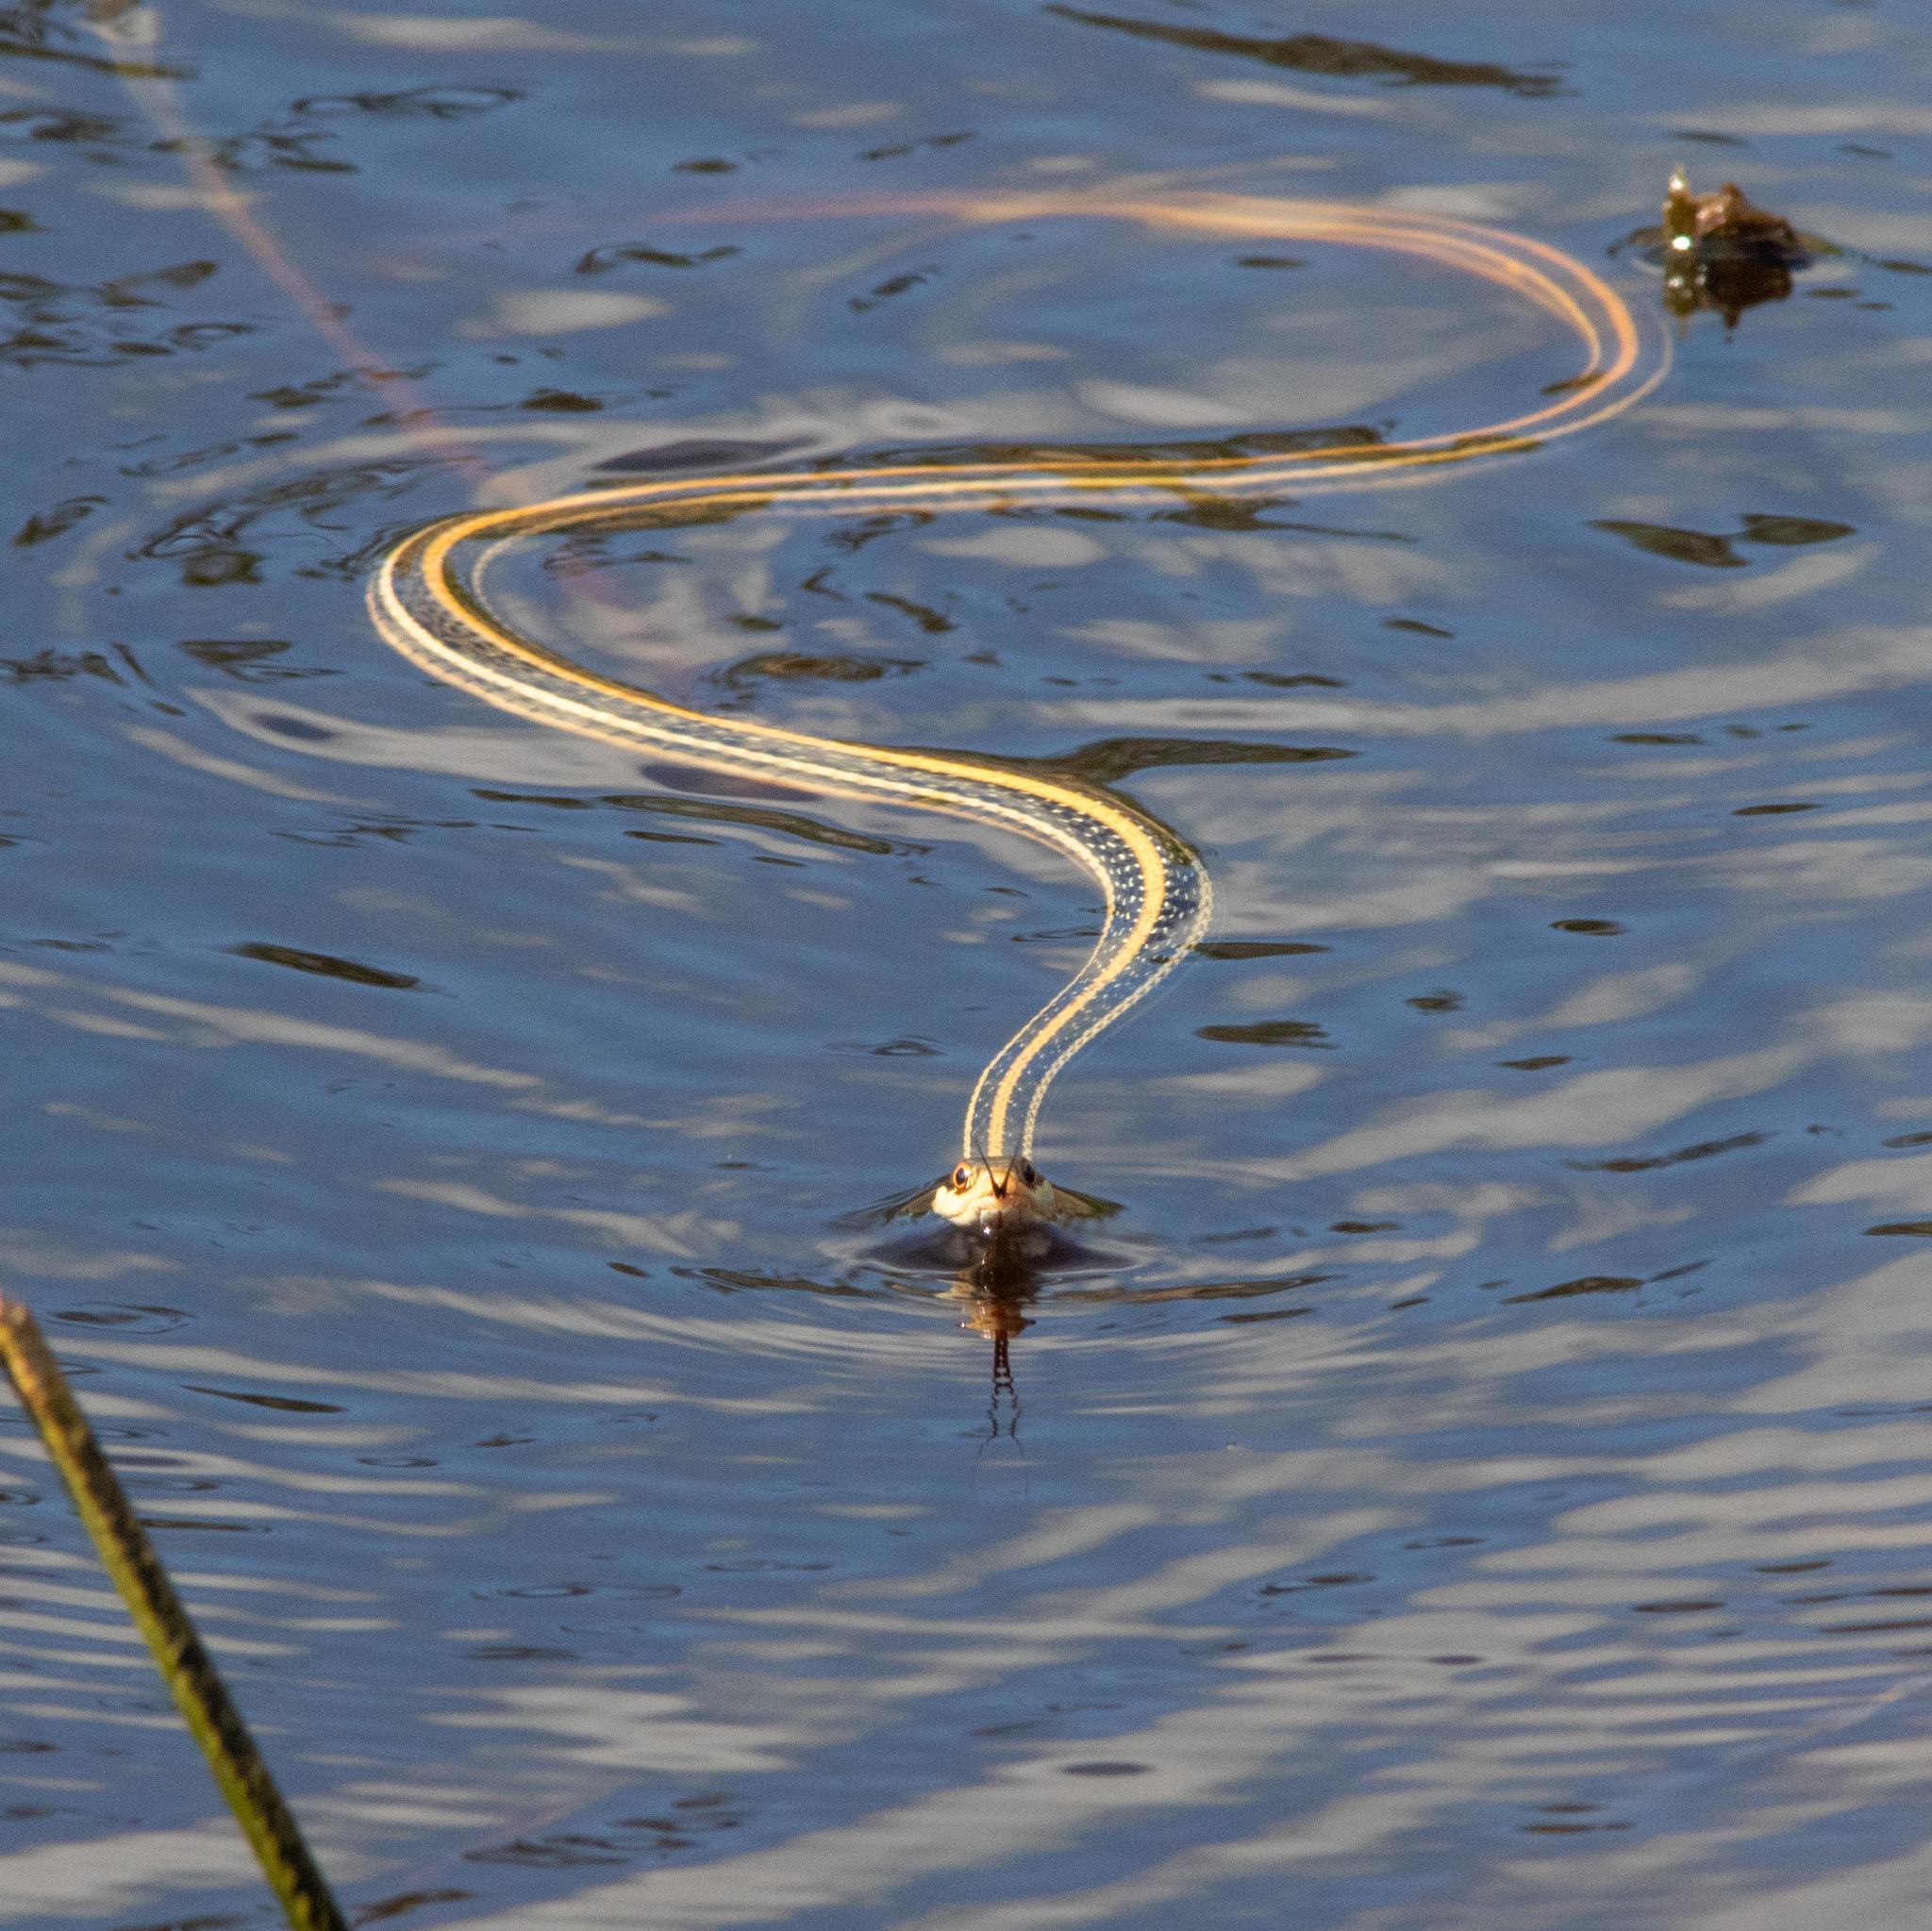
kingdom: Animalia
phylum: Chordata
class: Squamata
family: Colubridae
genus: Thamnophis
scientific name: Thamnophis proximus
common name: Western ribbon snake
